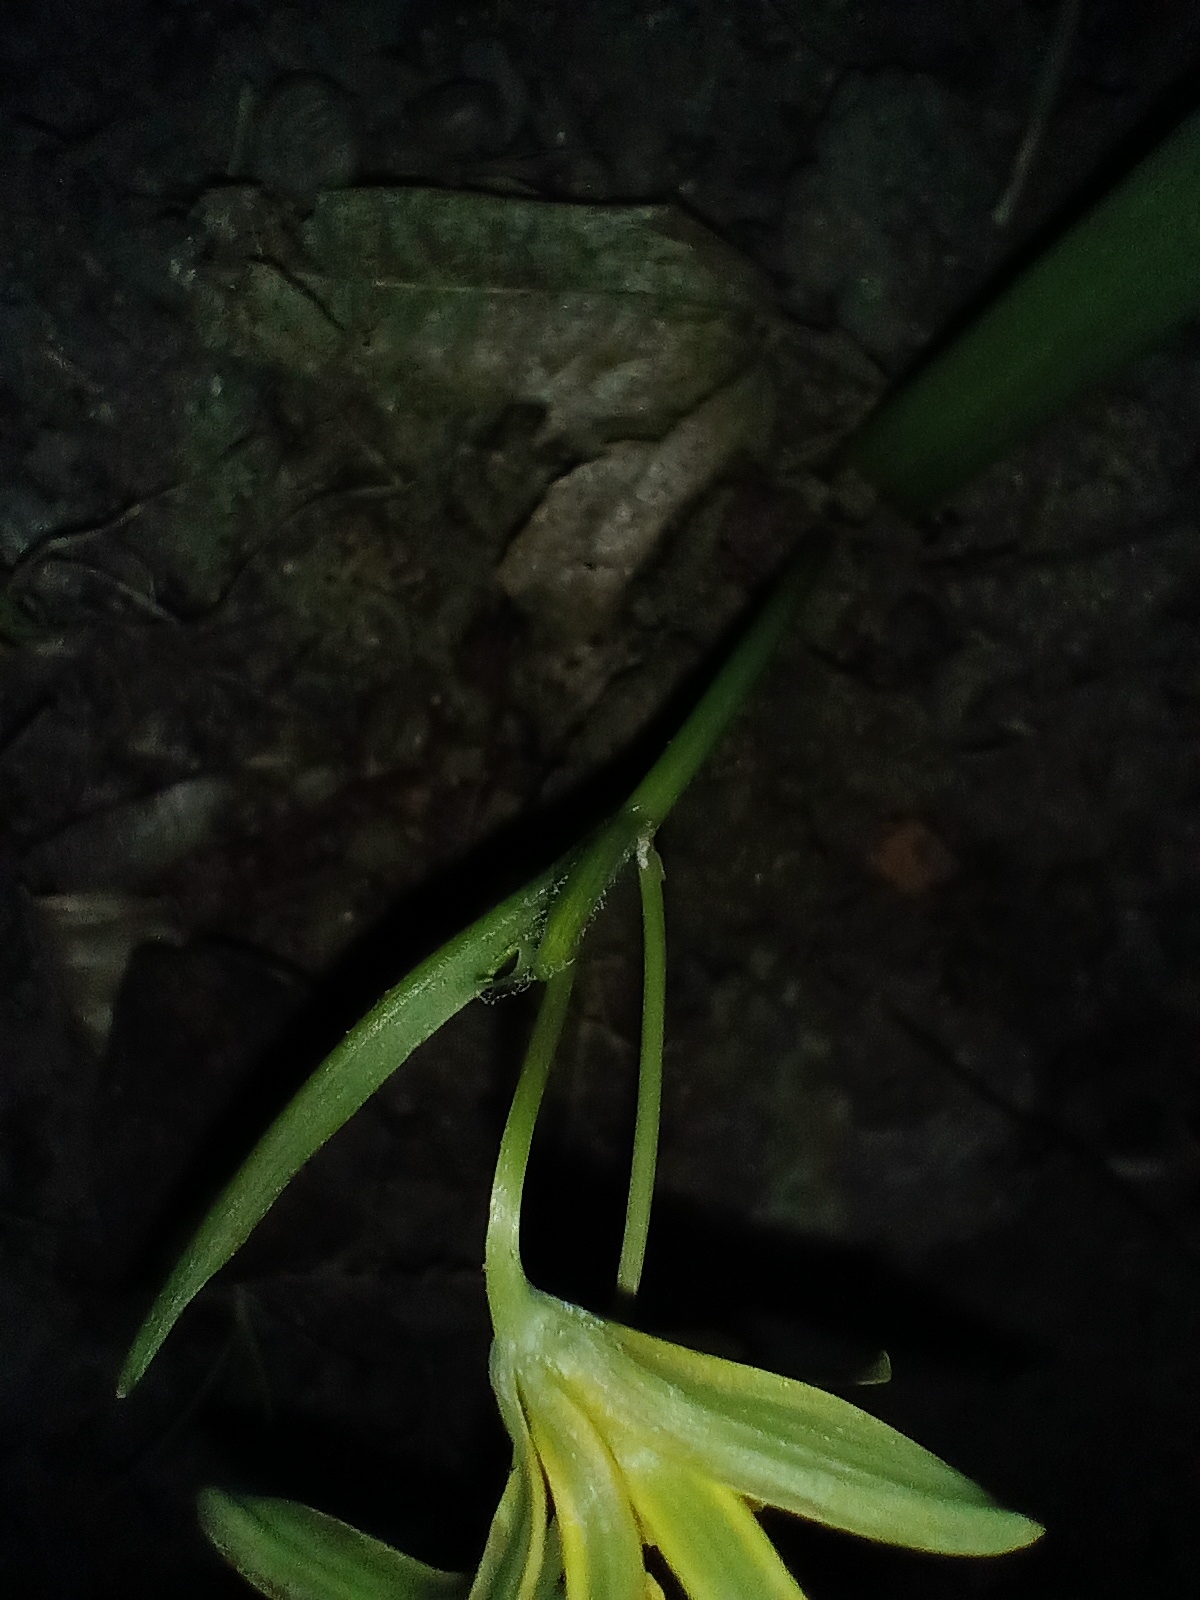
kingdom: Plantae
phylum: Tracheophyta
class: Liliopsida
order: Liliales
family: Liliaceae
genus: Gagea
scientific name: Gagea lutea
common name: Yellow star-of-bethlehem
